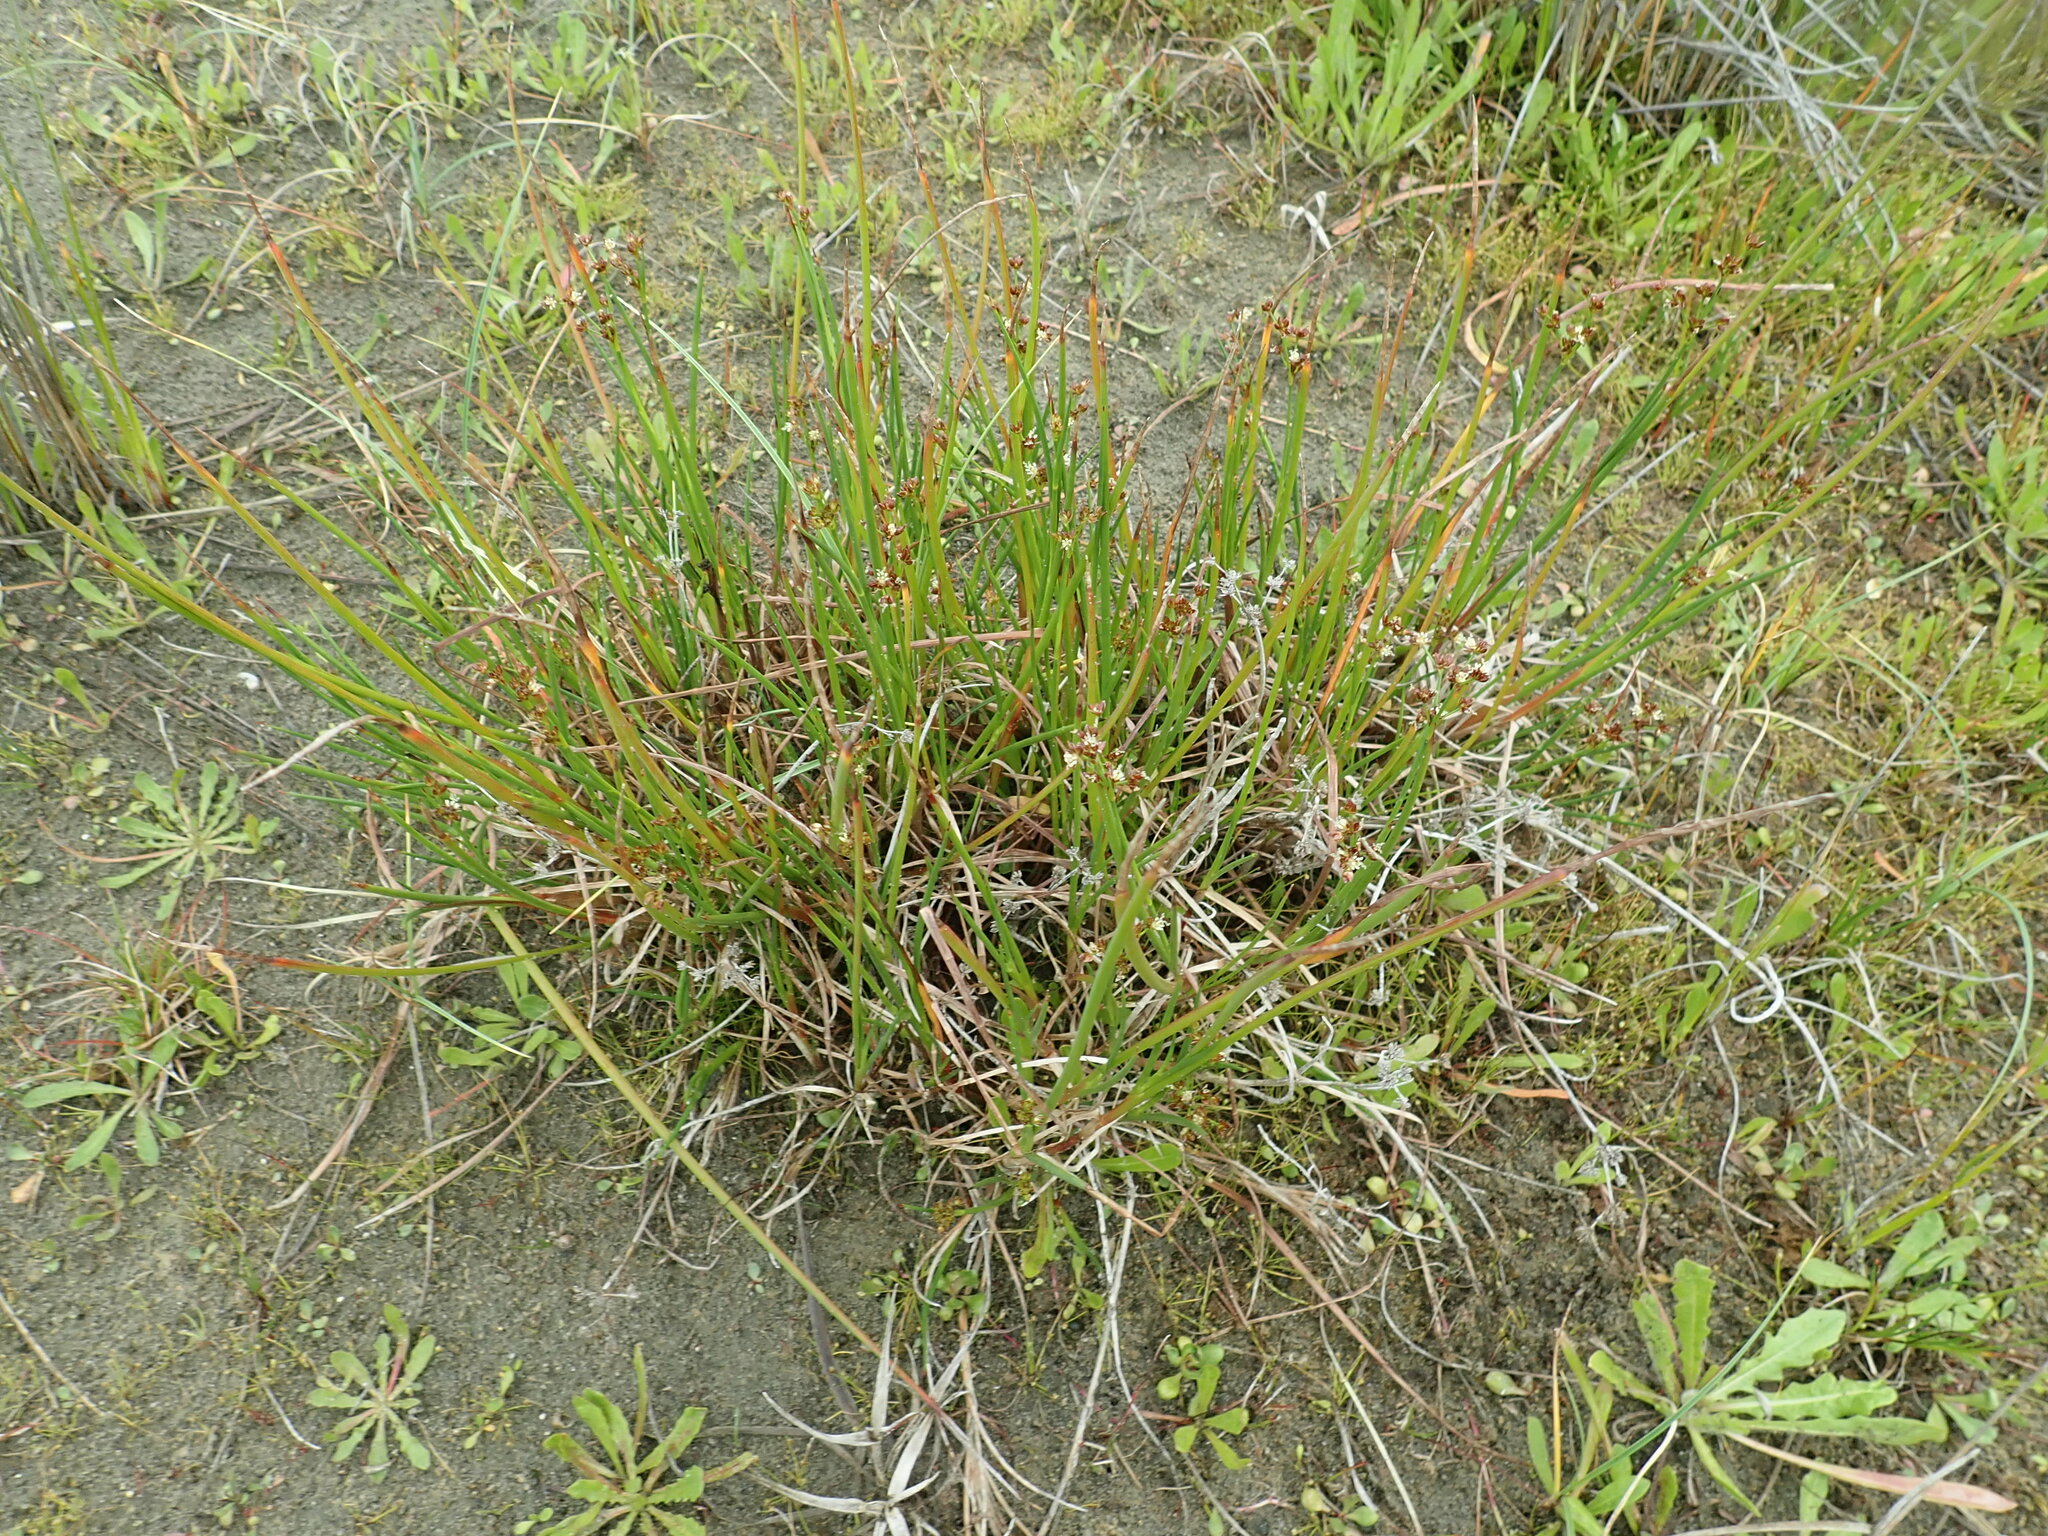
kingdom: Plantae
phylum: Tracheophyta
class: Liliopsida
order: Poales
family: Juncaceae
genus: Juncus
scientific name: Juncus articulatus
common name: Jointed rush
